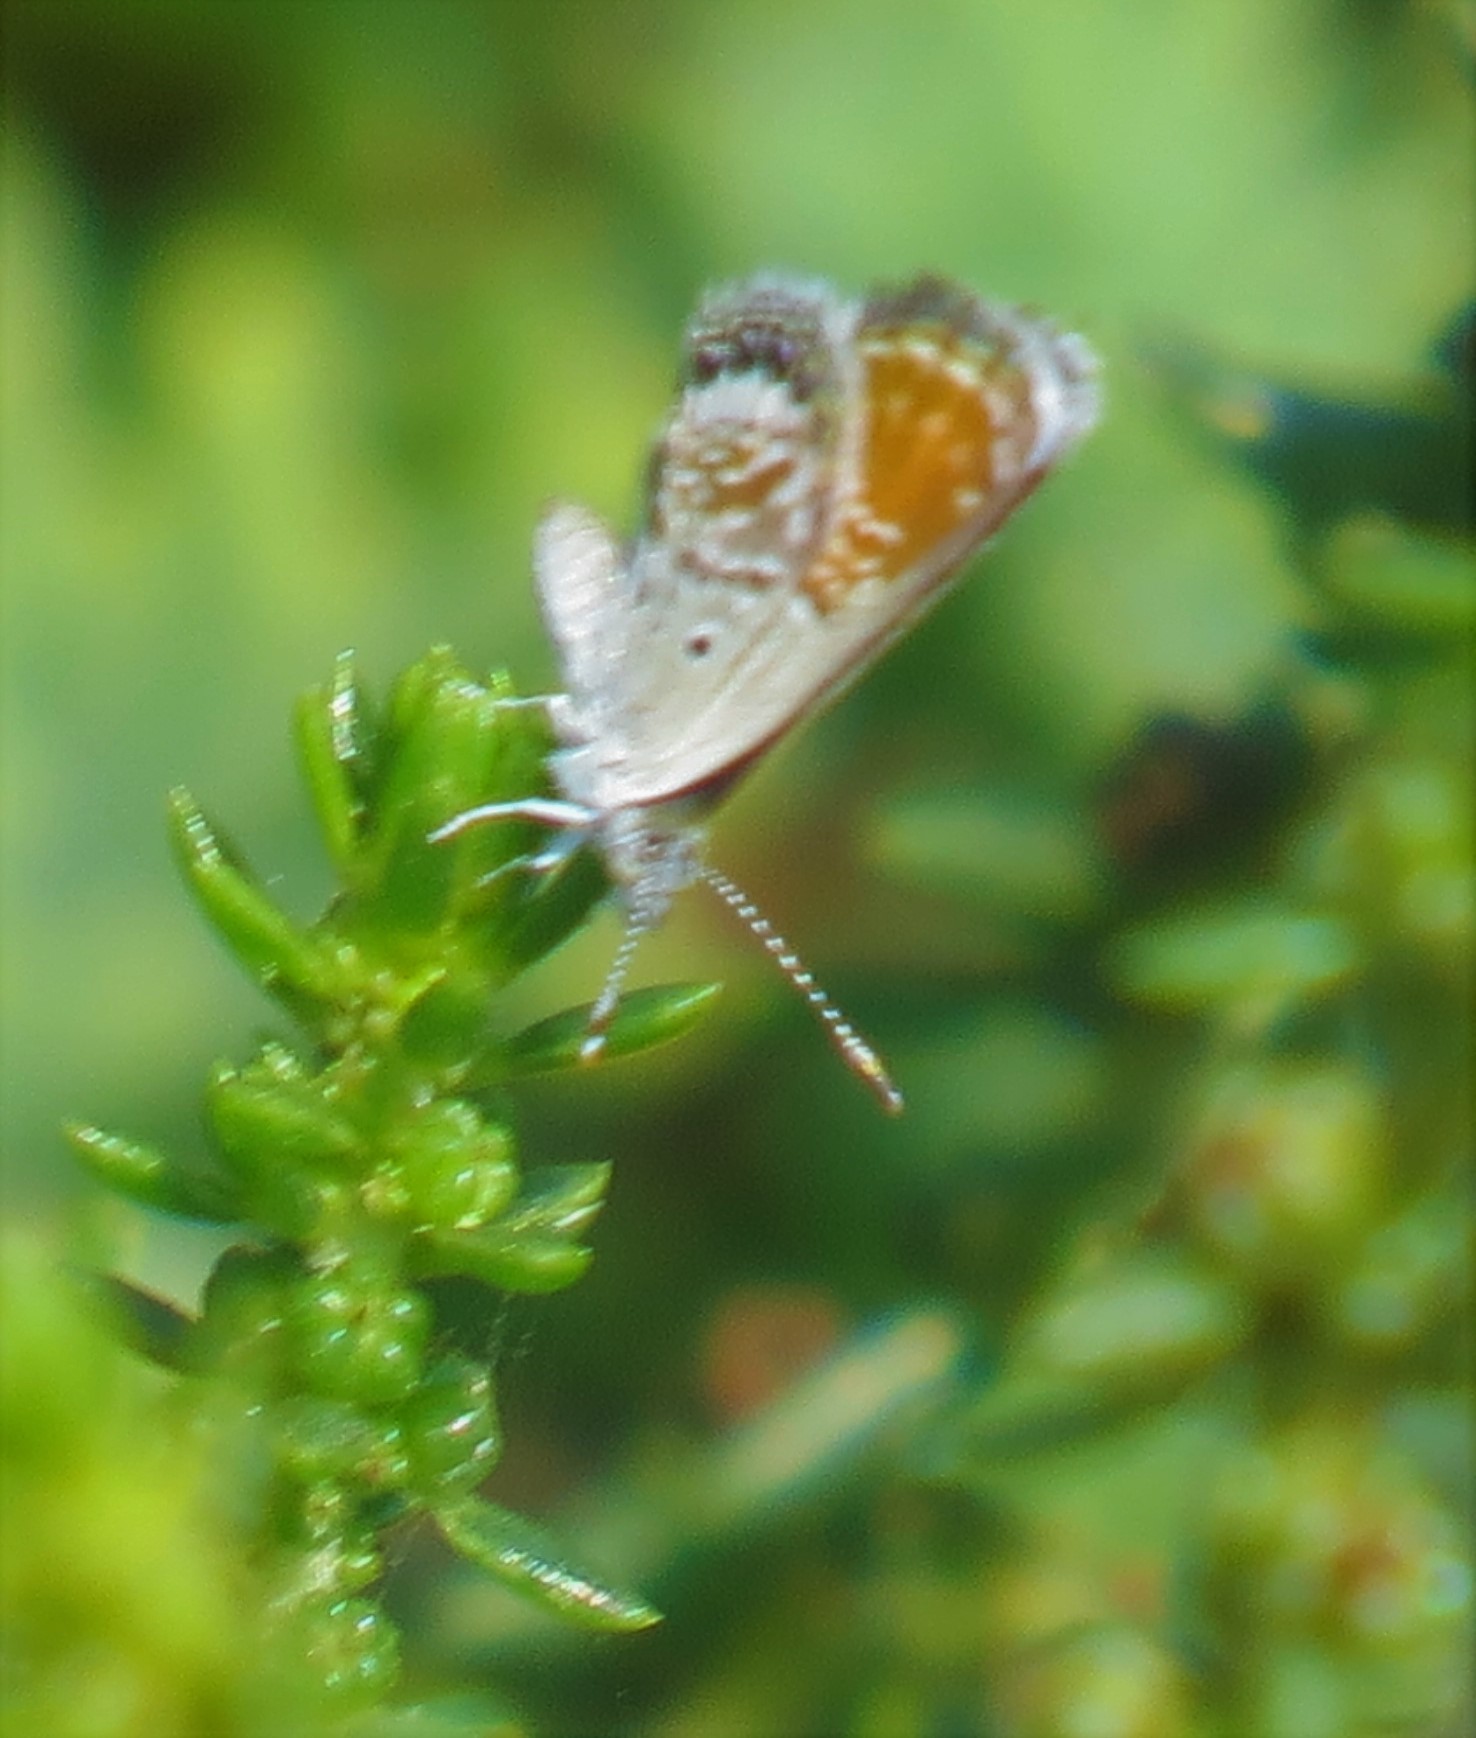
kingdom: Animalia
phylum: Arthropoda
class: Insecta
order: Lepidoptera
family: Lycaenidae
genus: Brephidium
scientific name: Brephidium exilis
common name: Pygmy blue
